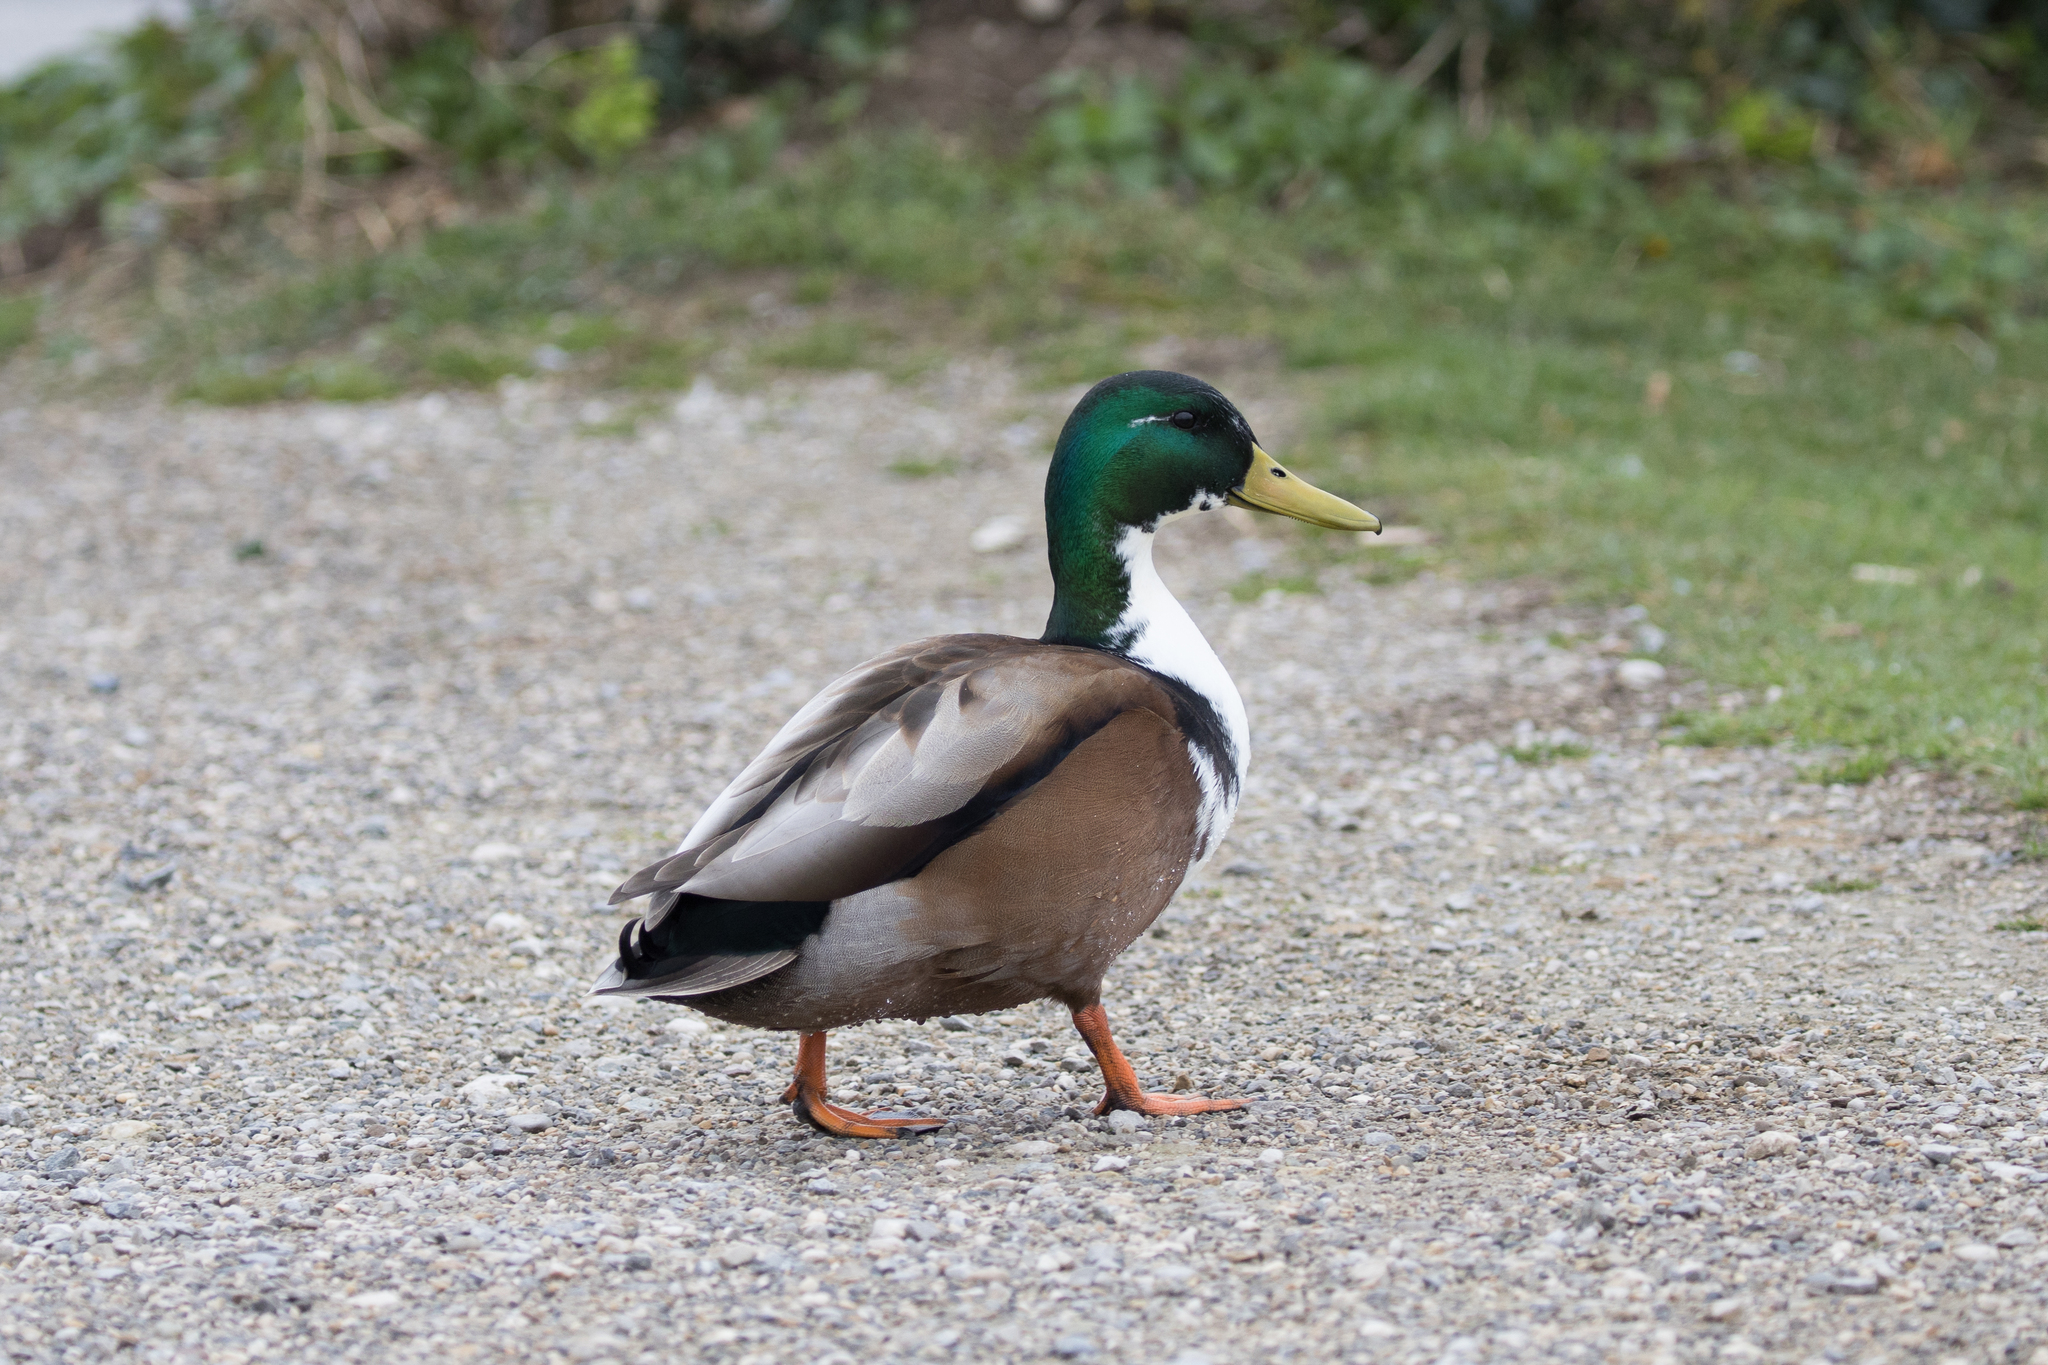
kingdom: Animalia
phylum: Chordata
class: Aves
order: Anseriformes
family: Anatidae
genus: Anas
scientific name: Anas platyrhynchos
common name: Mallard
